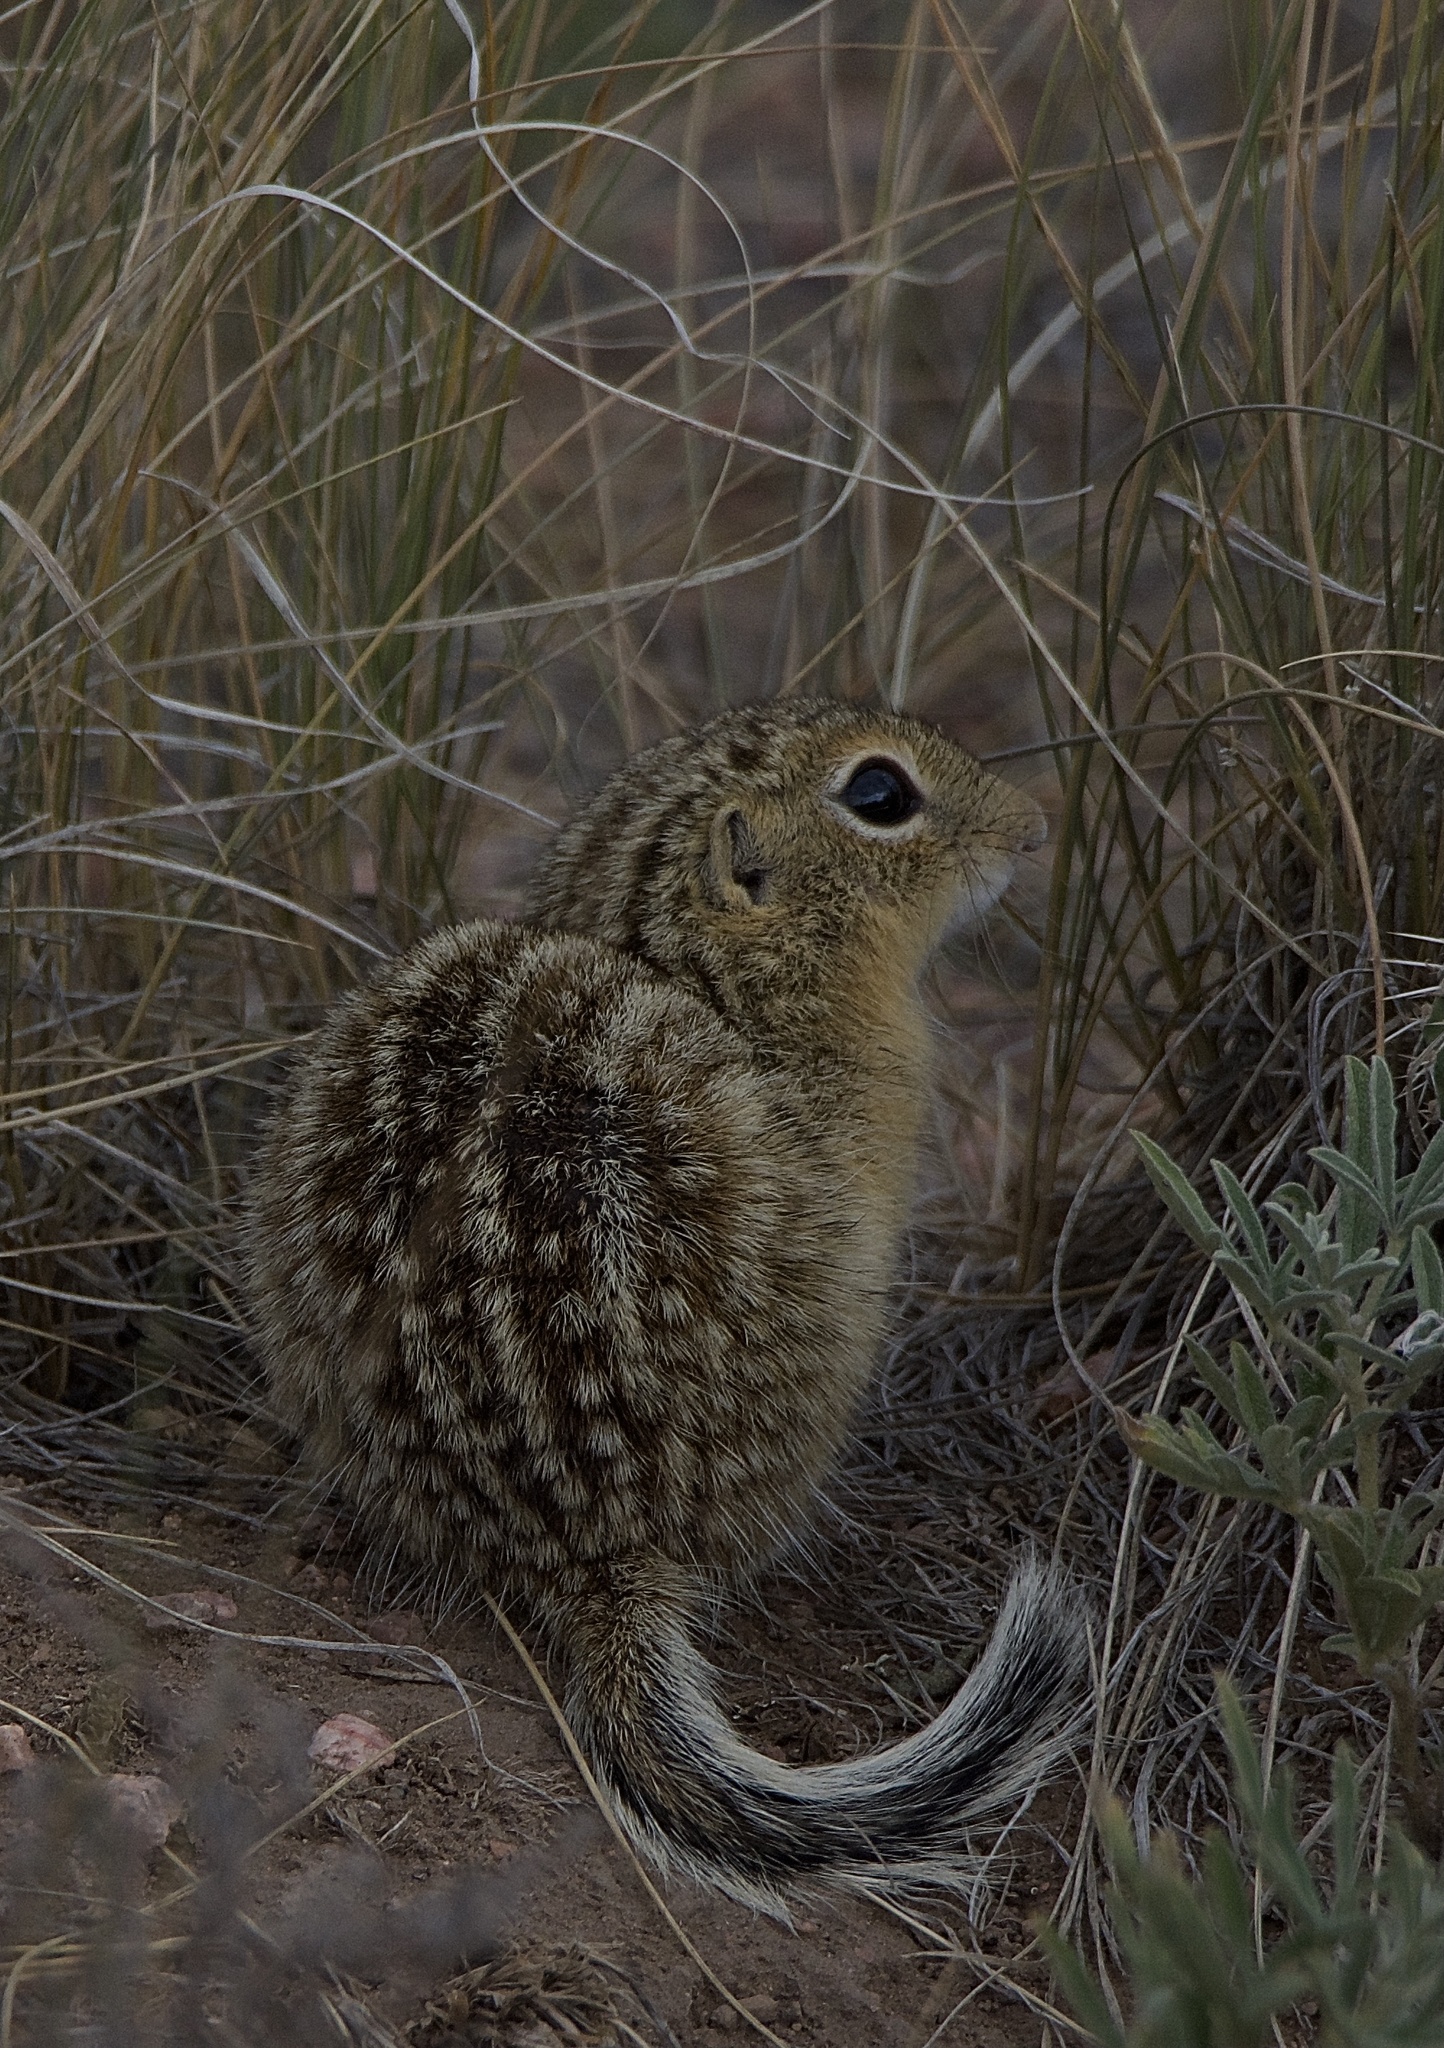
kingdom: Animalia
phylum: Chordata
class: Mammalia
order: Rodentia
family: Sciuridae
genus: Ictidomys
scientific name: Ictidomys tridecemlineatus
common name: Thirteen-lined ground squirrel
